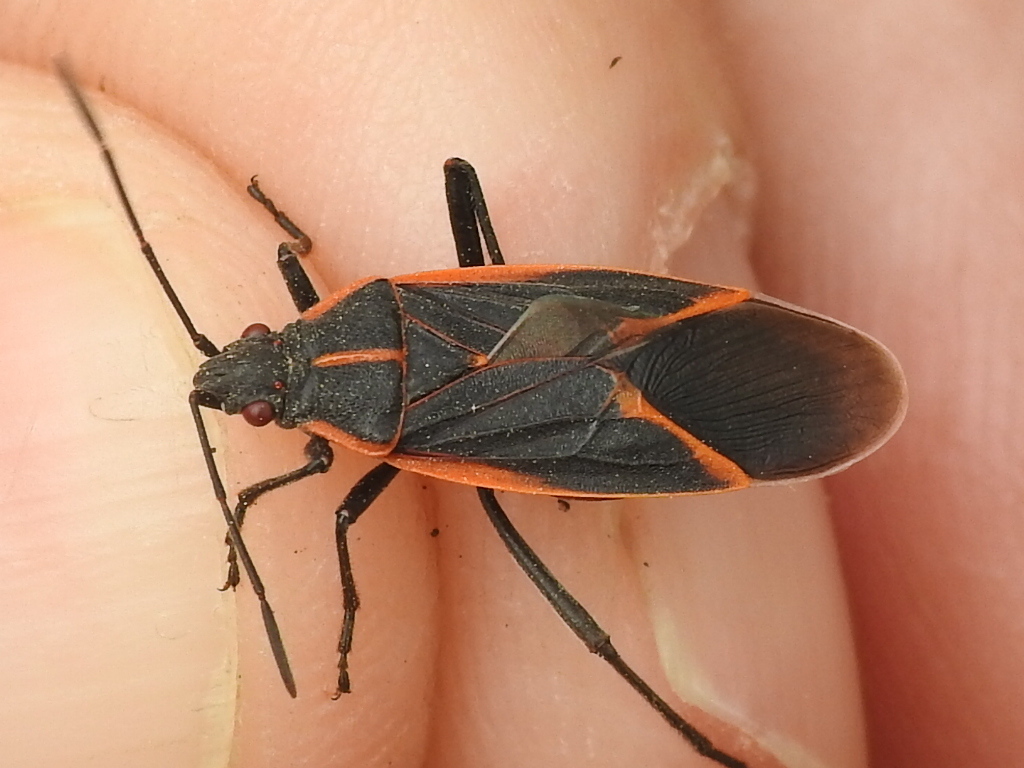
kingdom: Animalia
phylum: Arthropoda
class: Insecta
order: Hemiptera
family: Rhopalidae
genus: Boisea
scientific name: Boisea trivittata
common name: Boxelder bug
